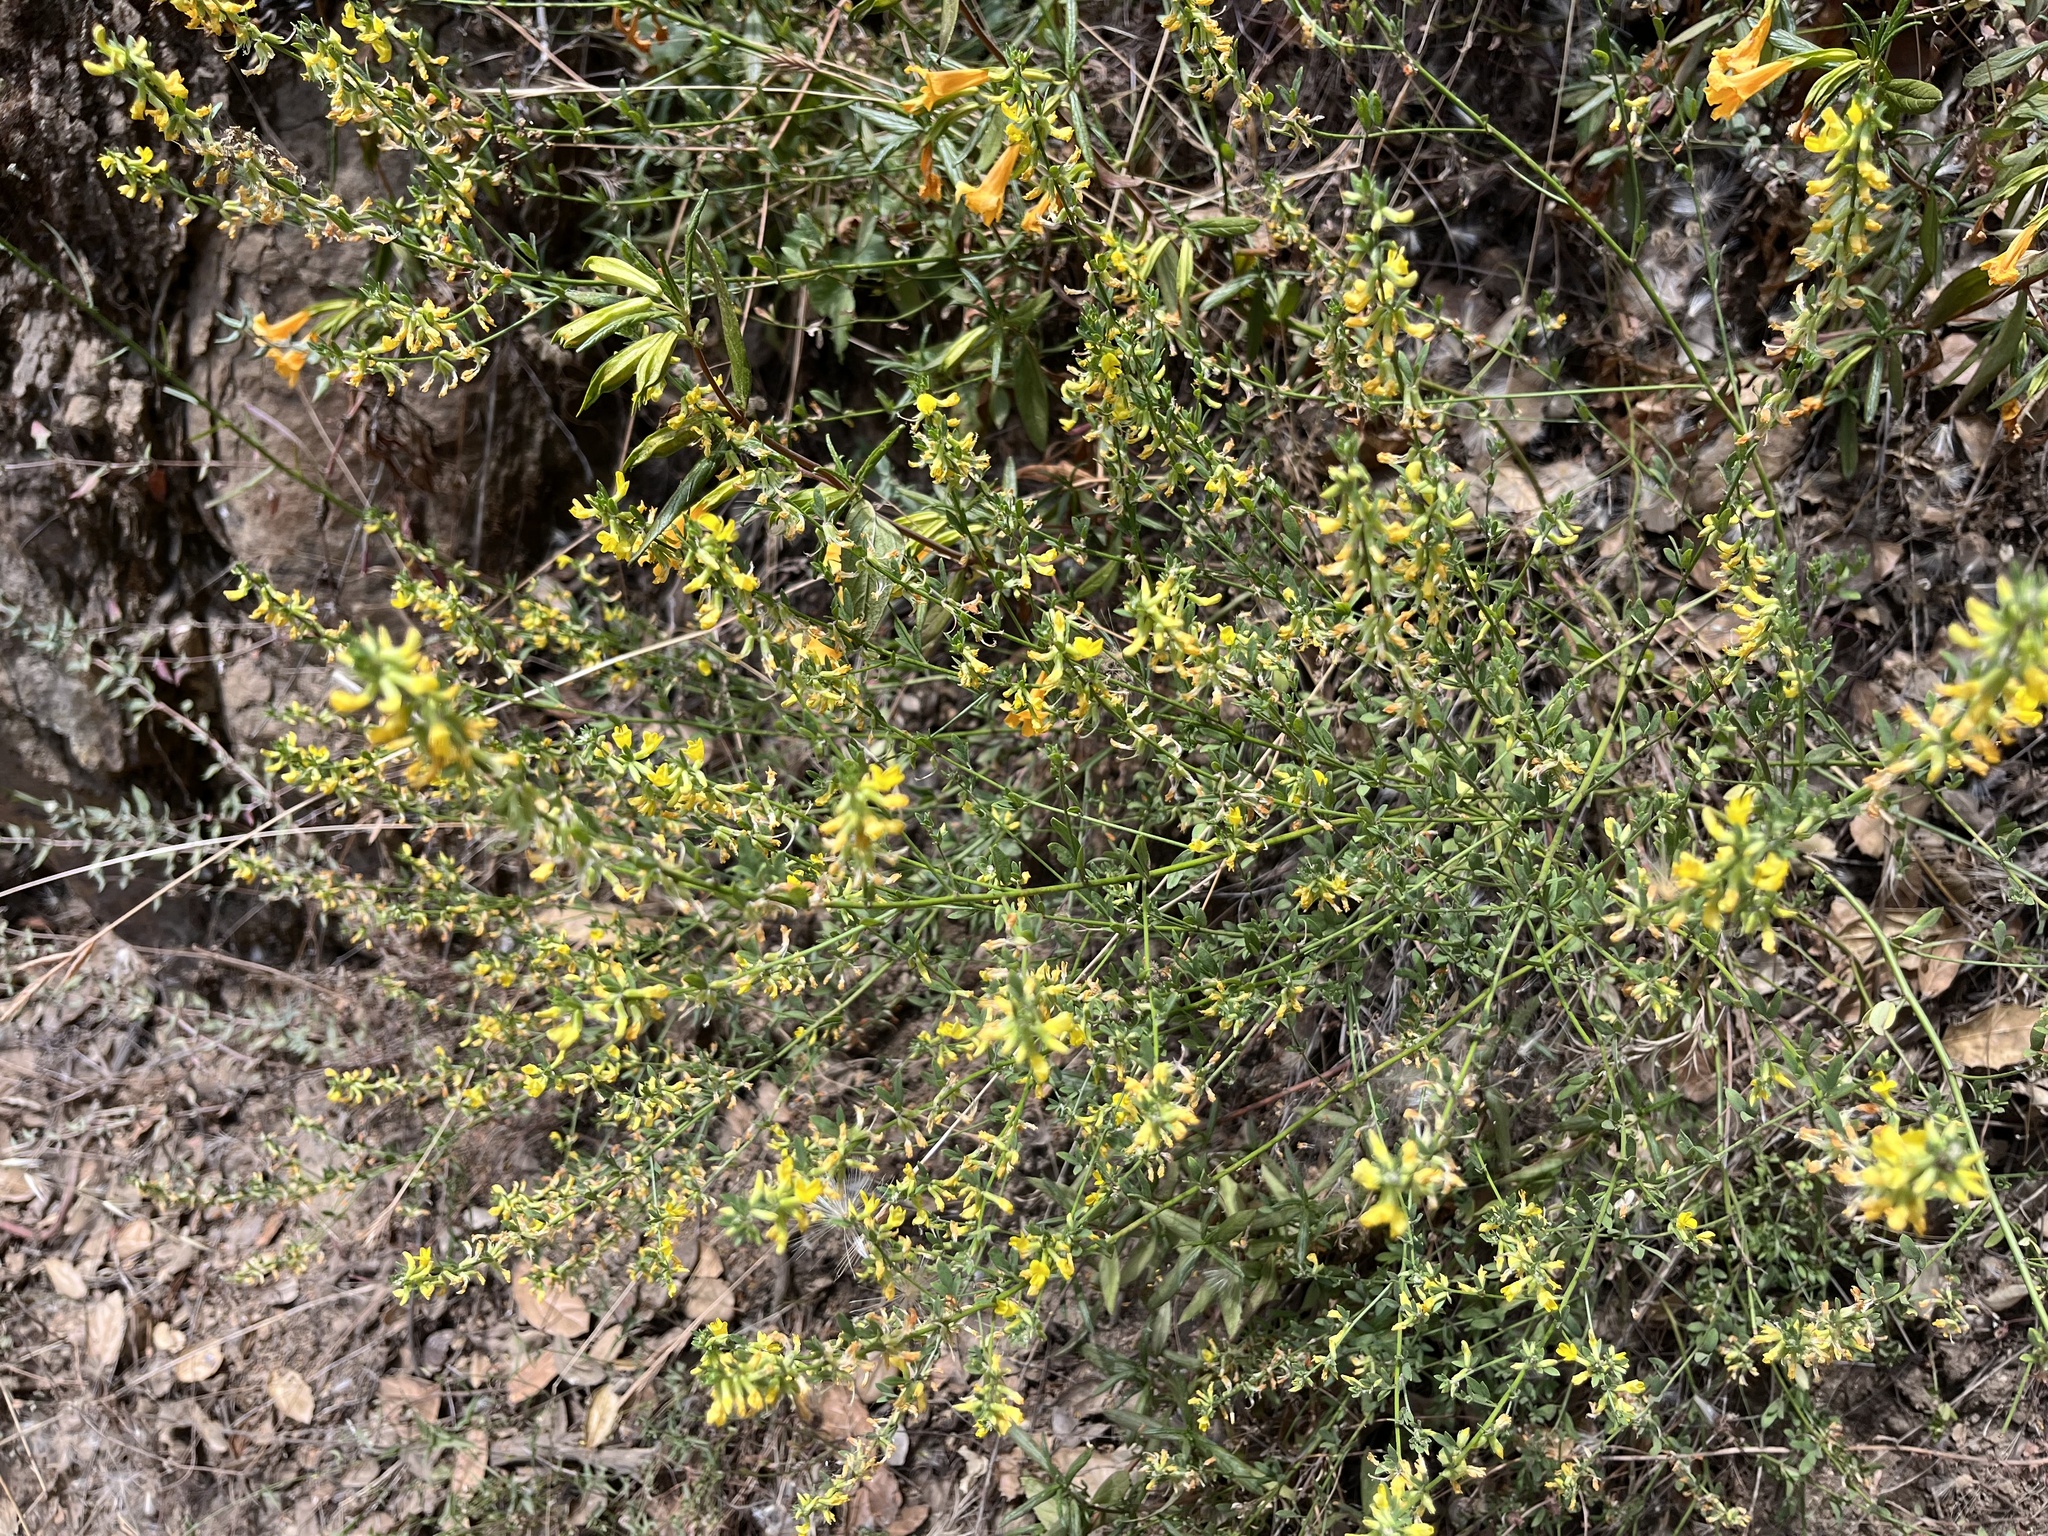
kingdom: Plantae
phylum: Tracheophyta
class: Magnoliopsida
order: Fabales
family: Fabaceae
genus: Acmispon
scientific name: Acmispon glaber
